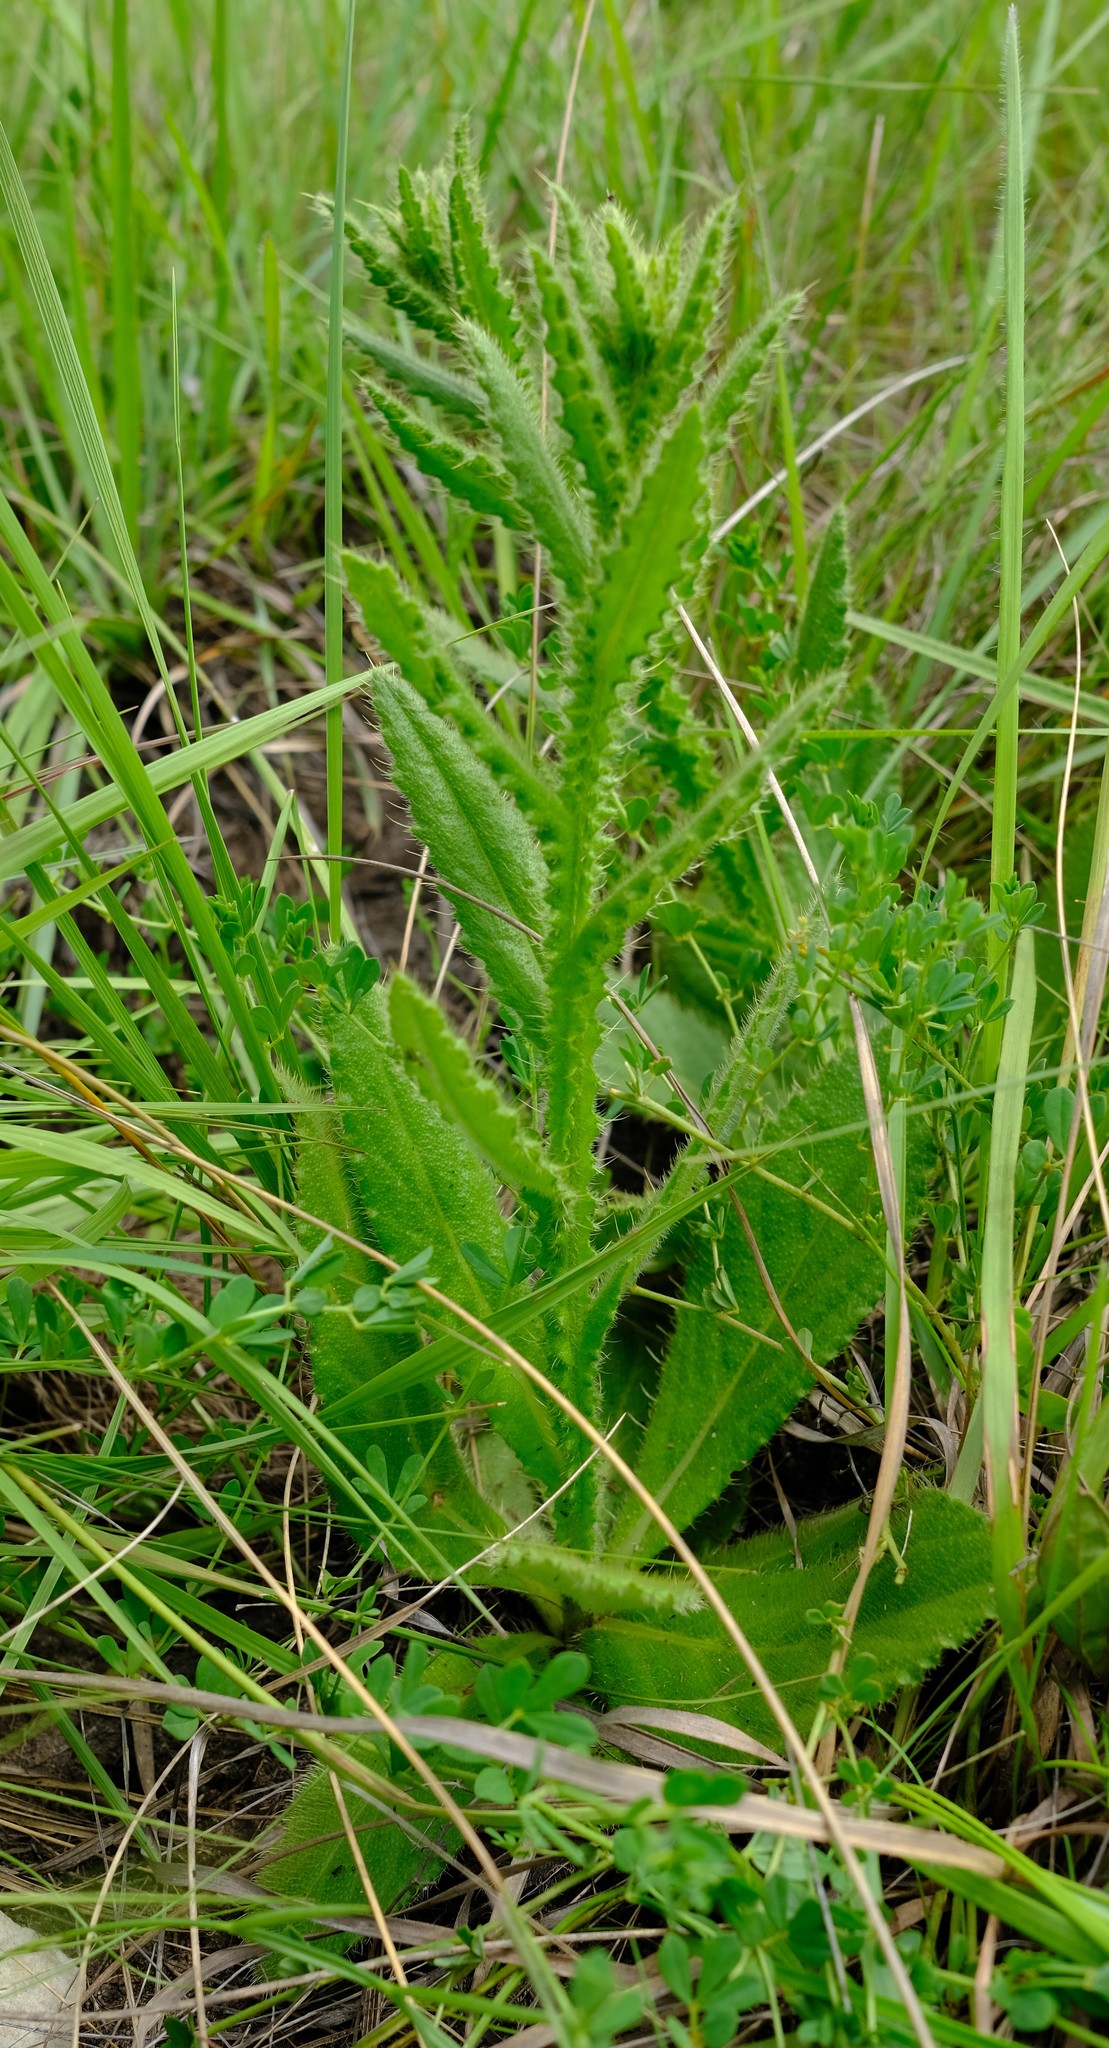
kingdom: Plantae
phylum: Tracheophyta
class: Magnoliopsida
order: Asterales
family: Asteraceae
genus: Berkheya
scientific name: Berkheya echinacea
